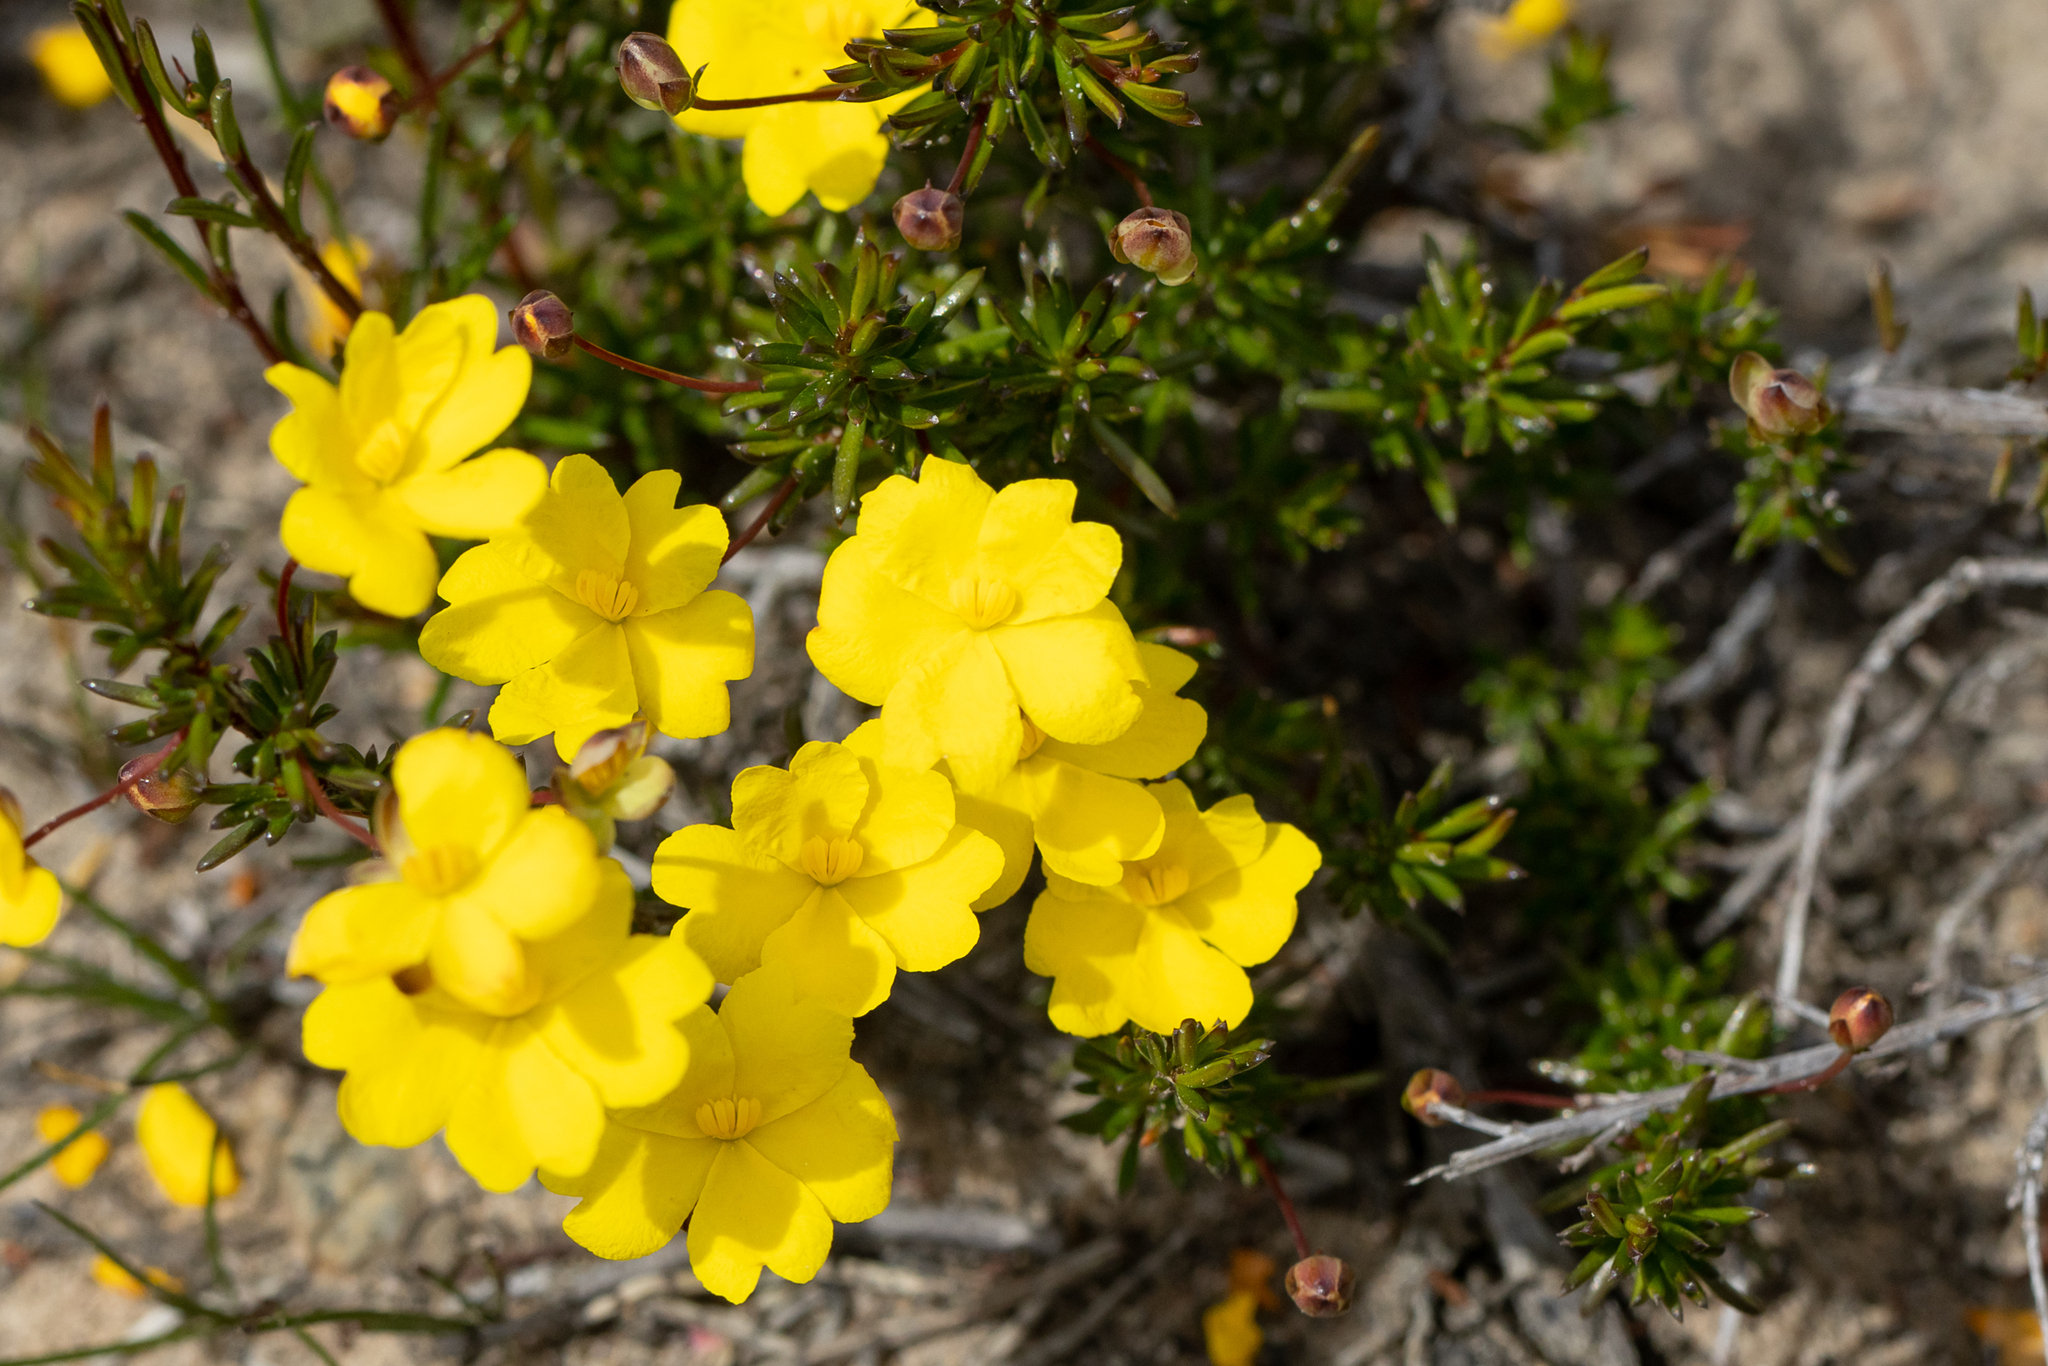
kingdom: Plantae
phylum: Tracheophyta
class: Magnoliopsida
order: Dilleniales
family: Dilleniaceae
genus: Hibbertia
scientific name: Hibbertia gracilipes
